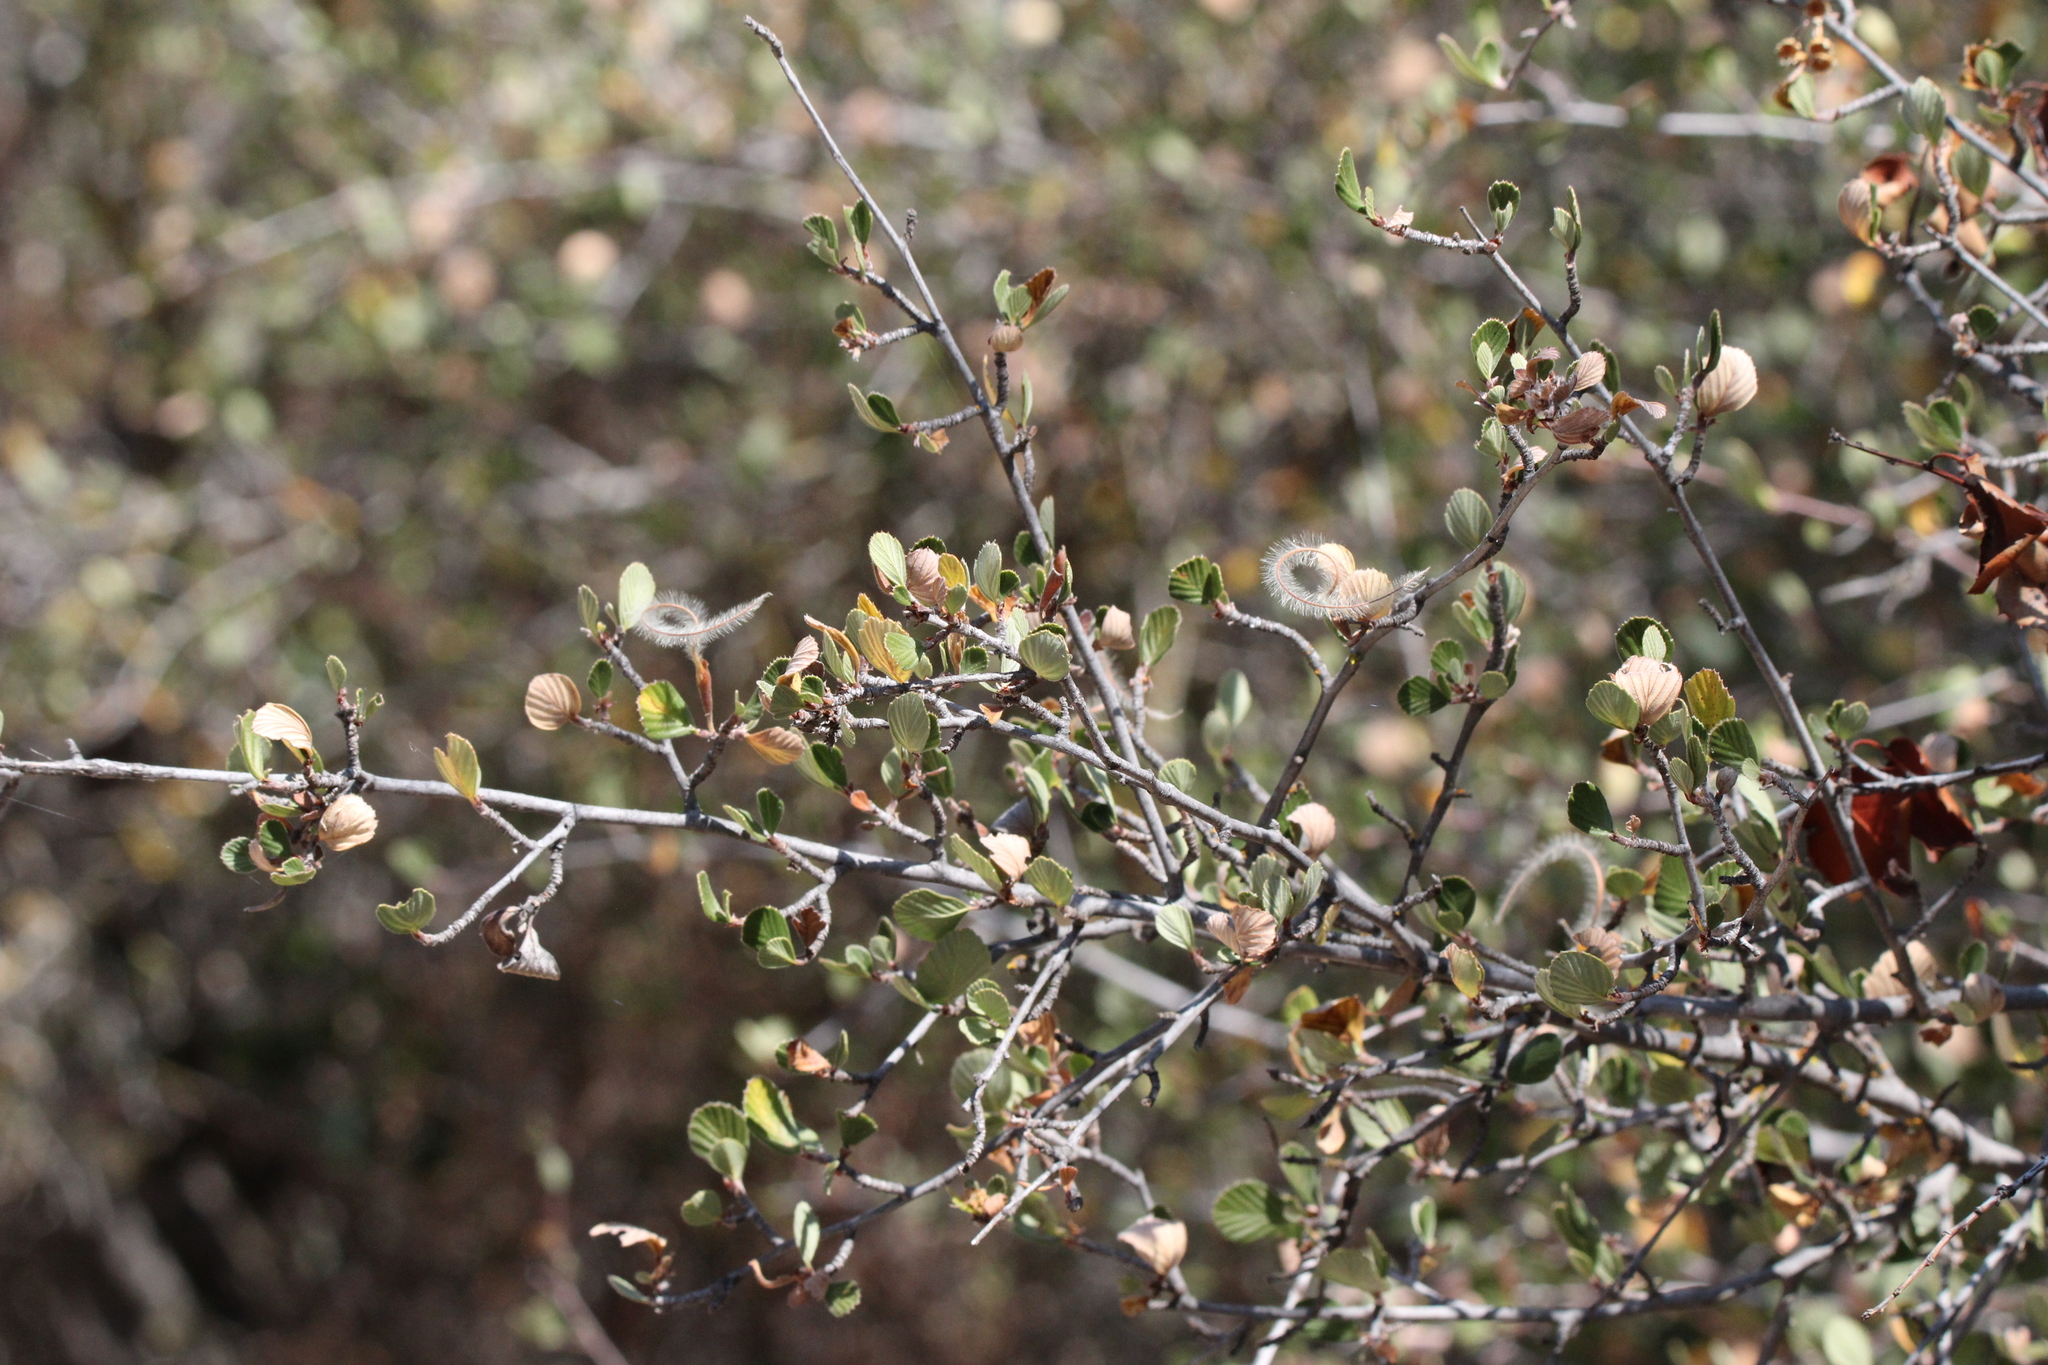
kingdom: Plantae
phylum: Tracheophyta
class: Magnoliopsida
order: Rosales
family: Rosaceae
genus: Cercocarpus
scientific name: Cercocarpus betuloides
